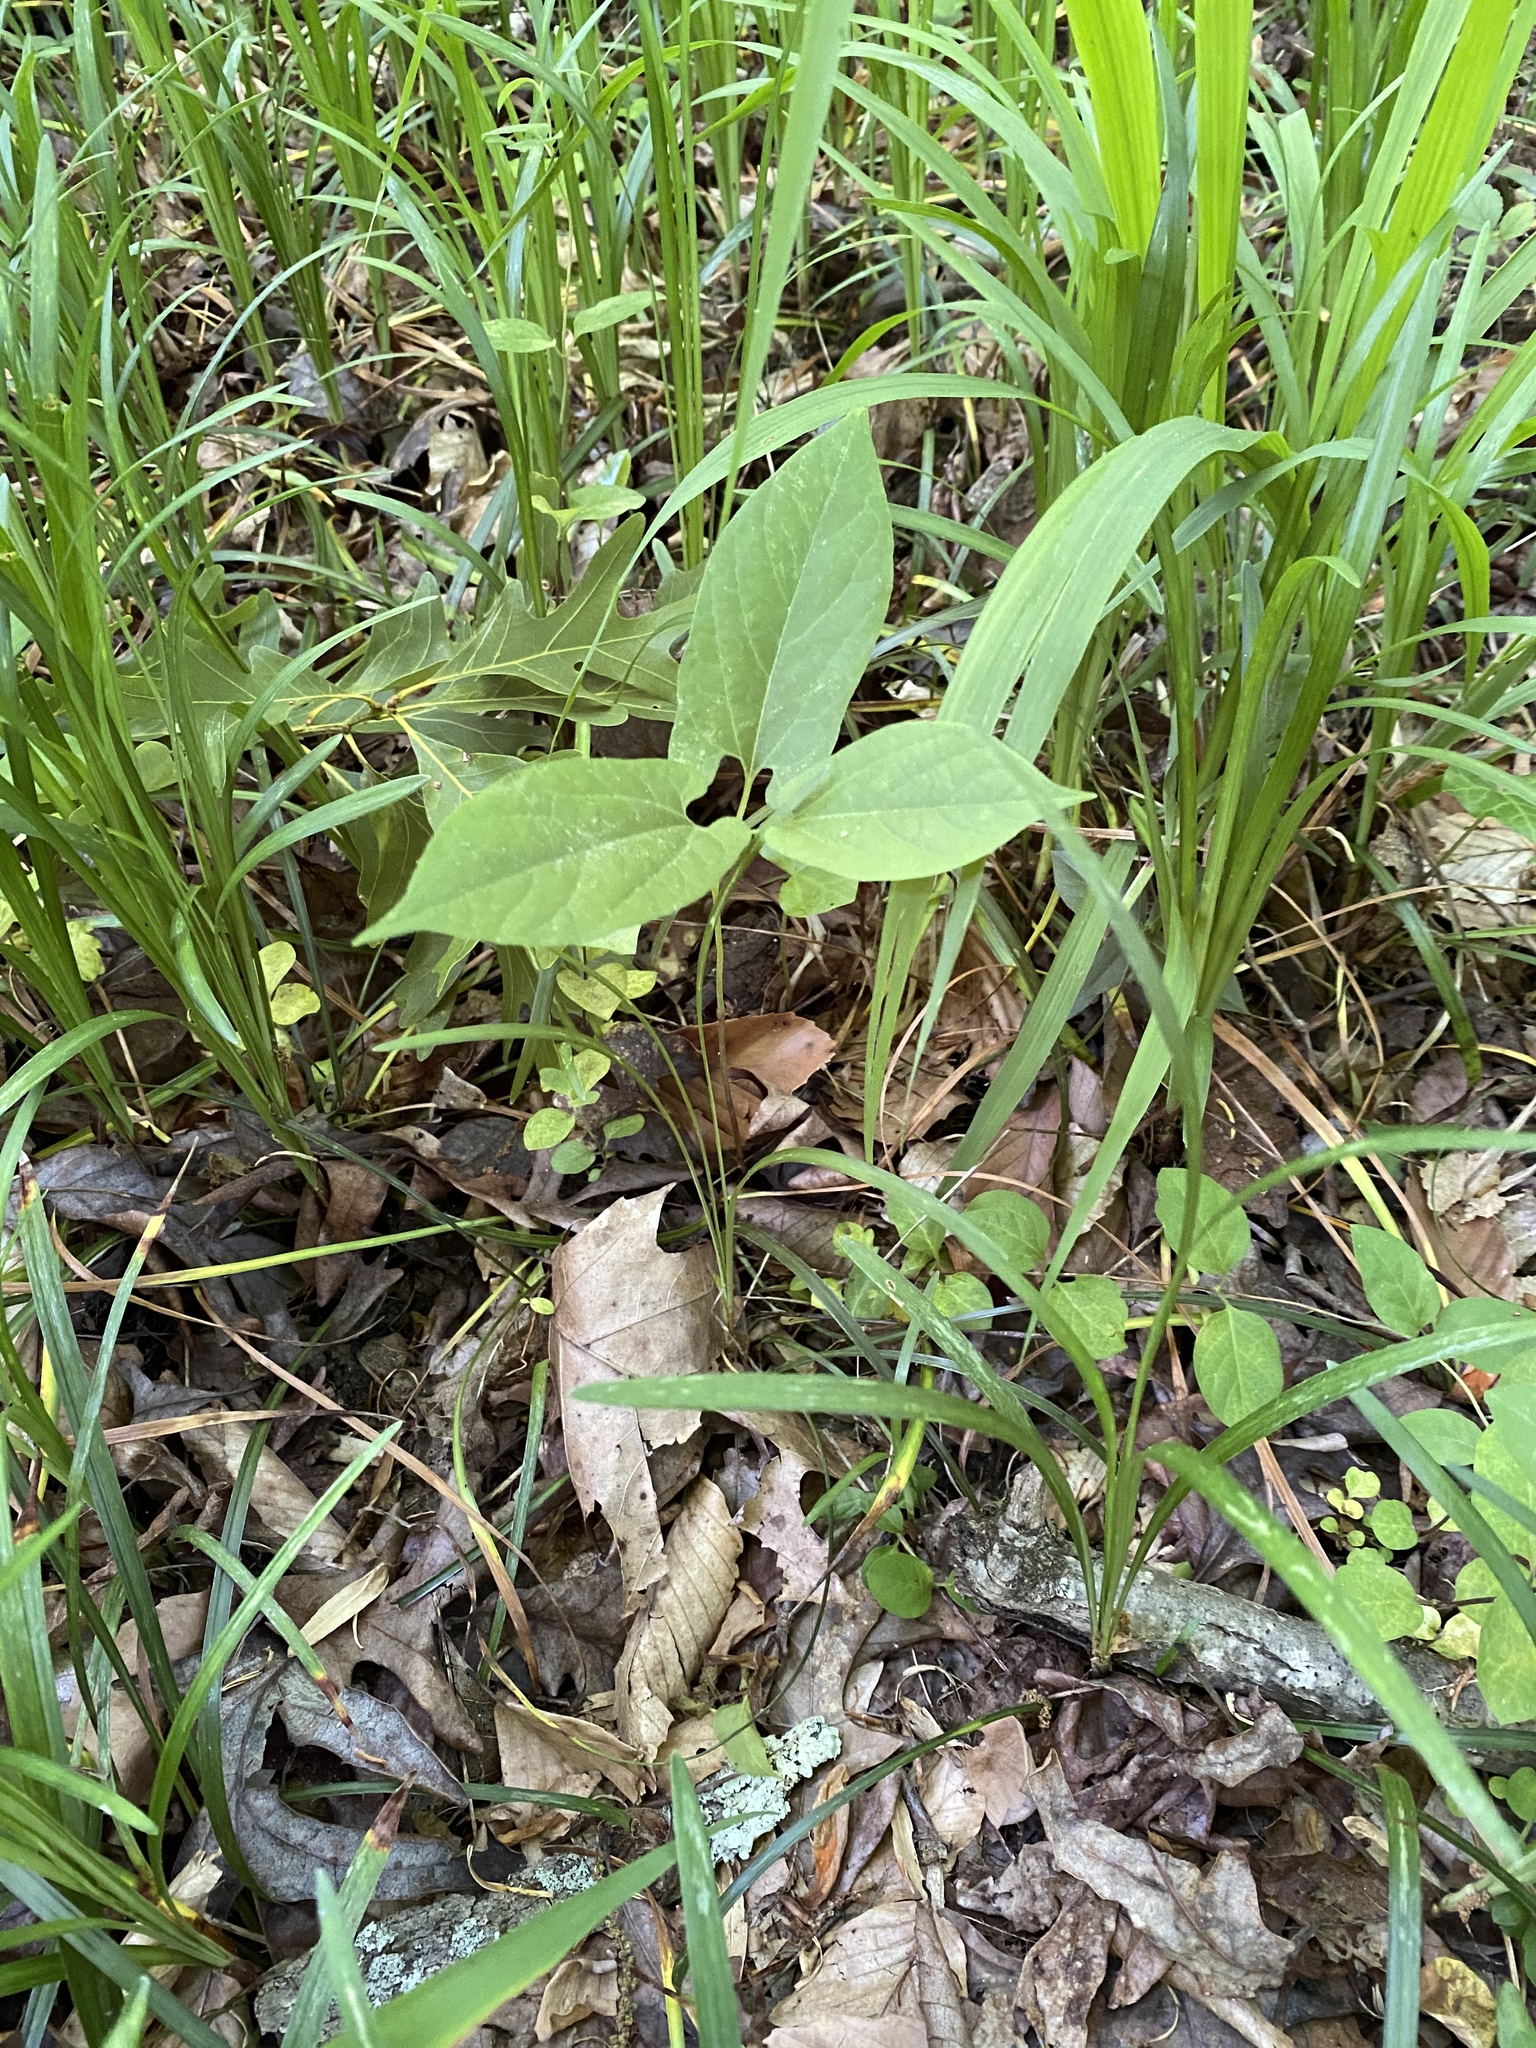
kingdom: Plantae
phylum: Tracheophyta
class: Magnoliopsida
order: Piperales
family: Aristolochiaceae
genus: Endodeca
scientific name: Endodeca serpentaria
